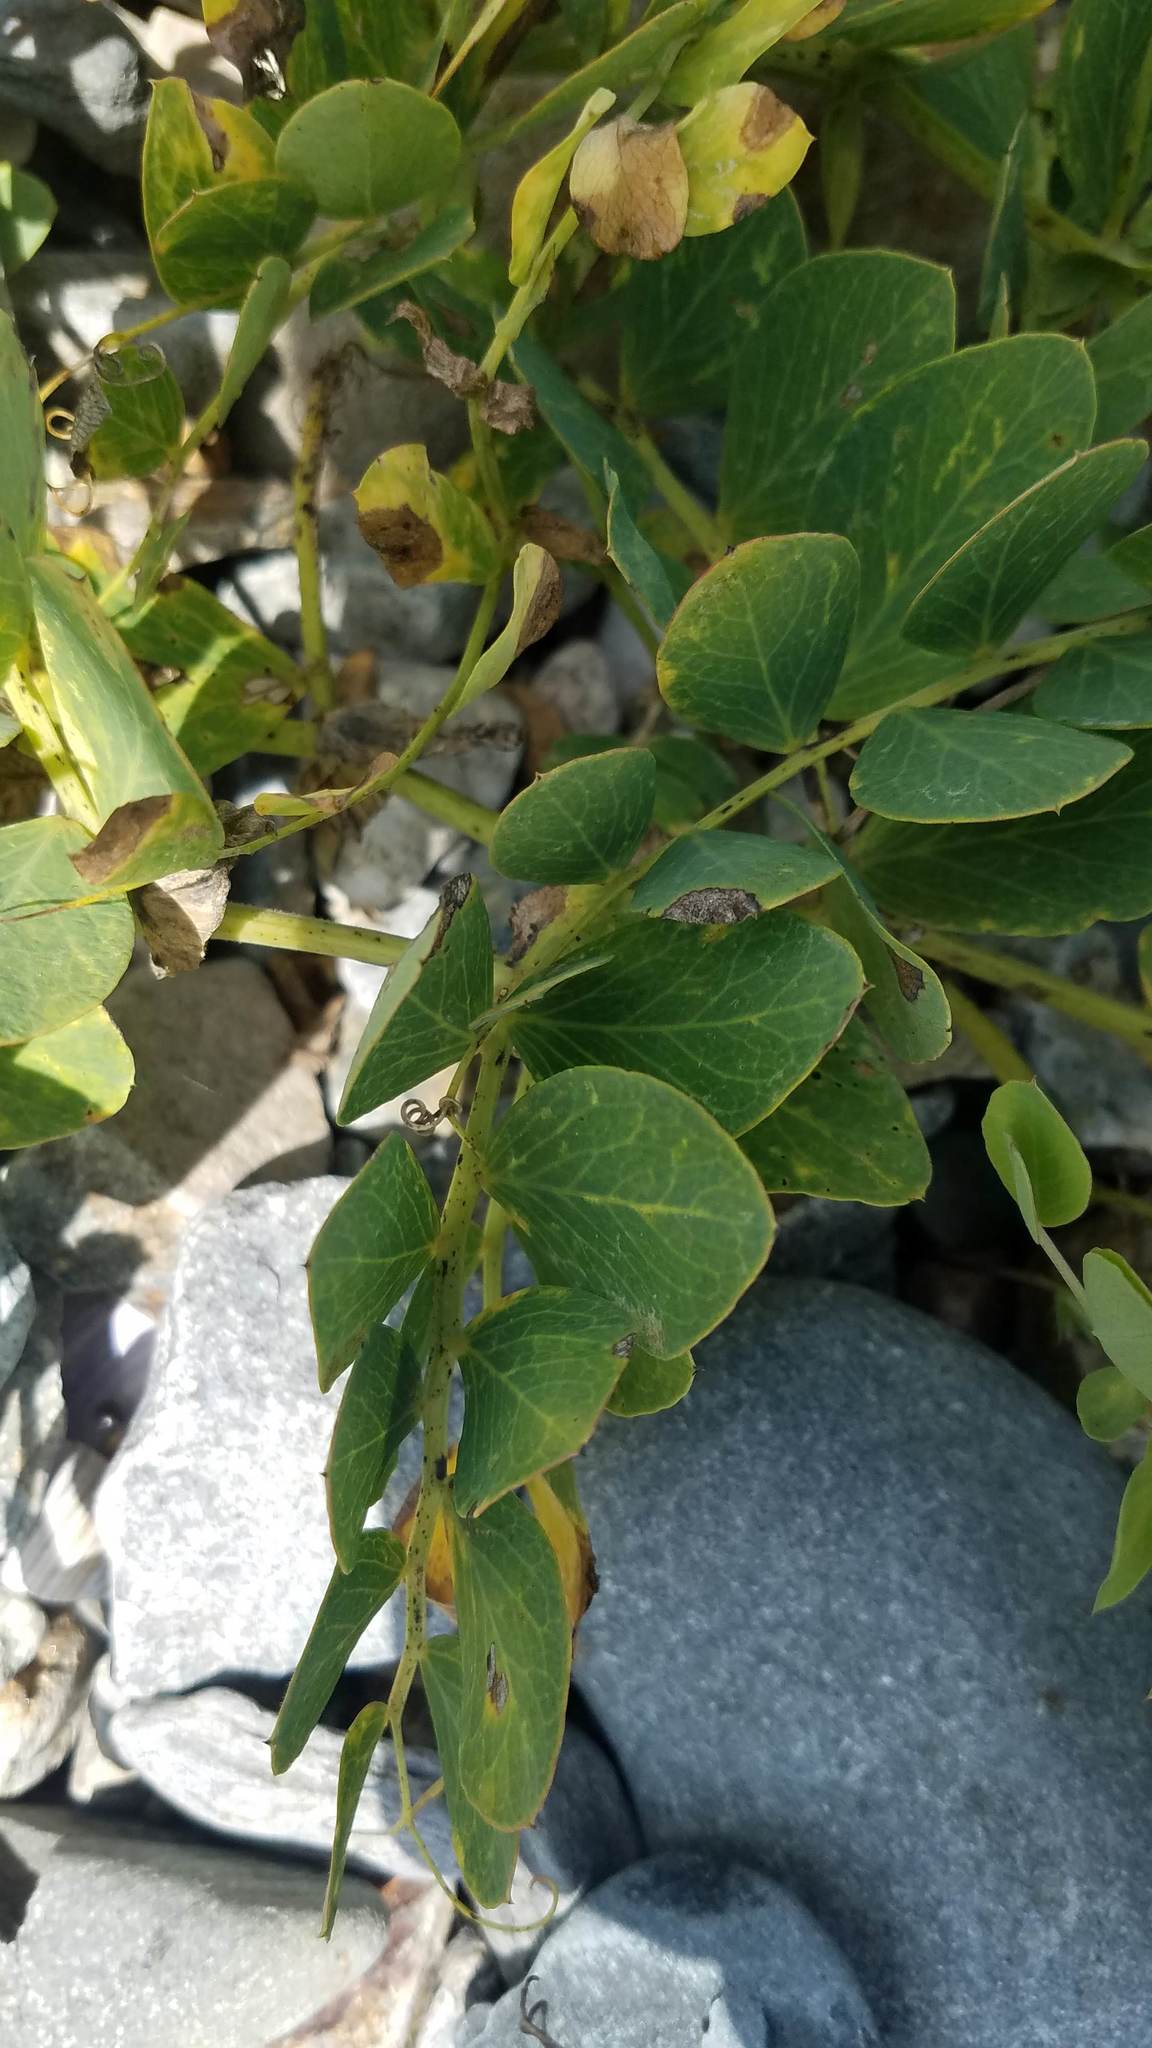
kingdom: Plantae
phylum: Tracheophyta
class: Magnoliopsida
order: Fabales
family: Fabaceae
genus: Lathyrus
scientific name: Lathyrus japonicus
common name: Sea pea
